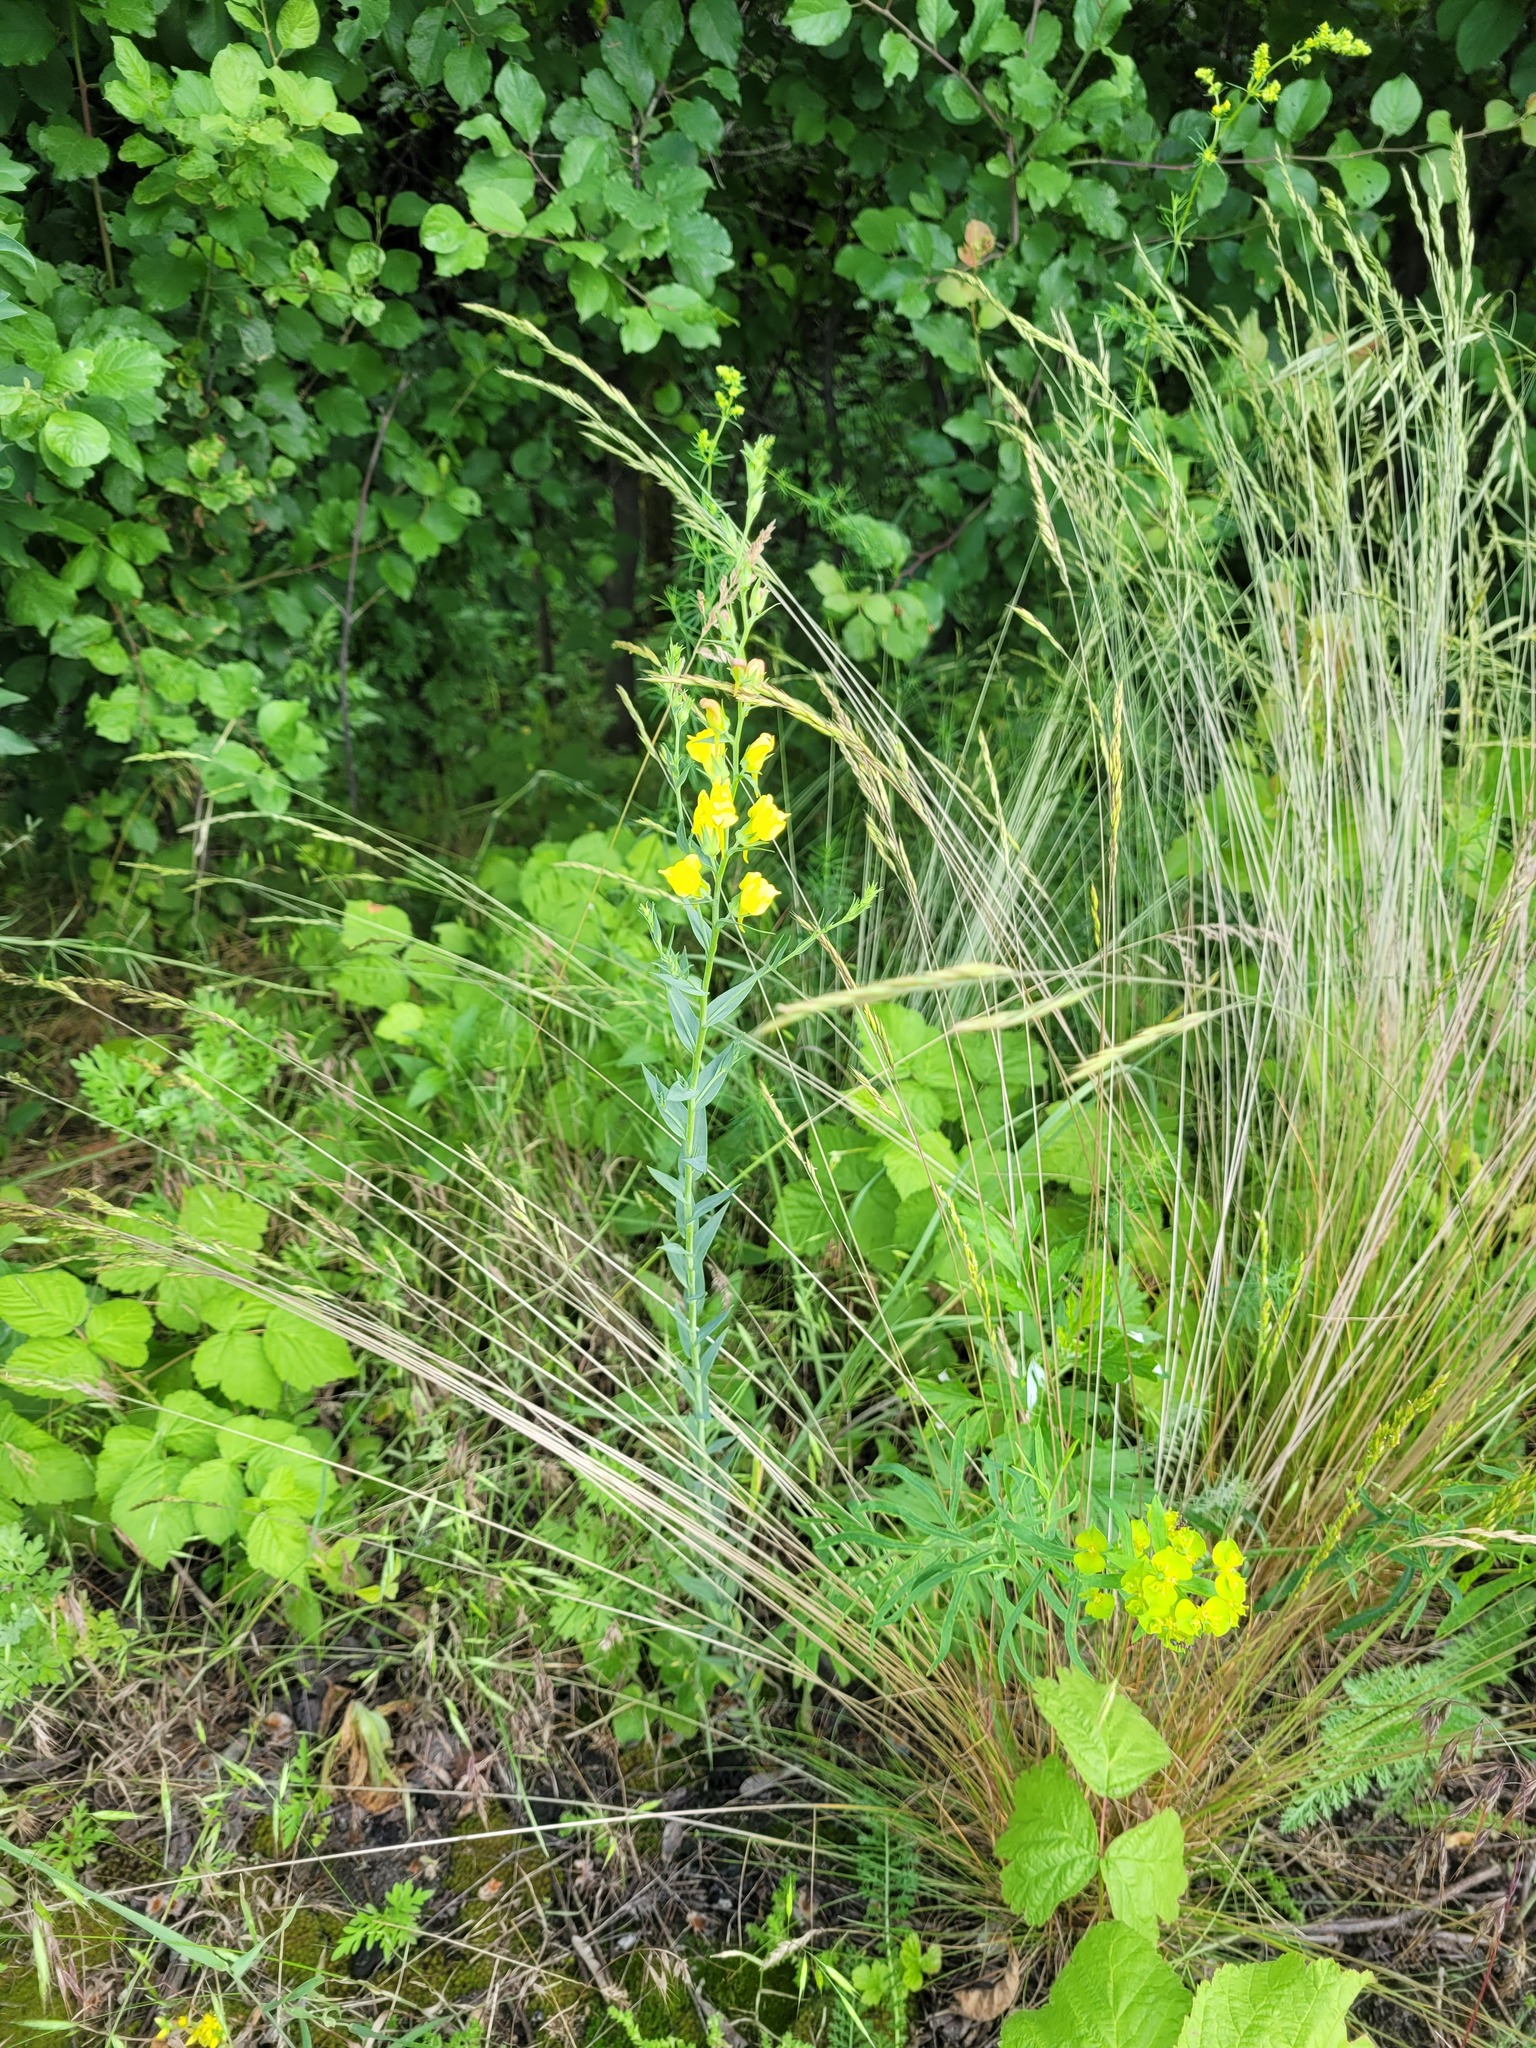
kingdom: Plantae
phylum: Tracheophyta
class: Magnoliopsida
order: Lamiales
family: Plantaginaceae
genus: Linaria
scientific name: Linaria genistifolia
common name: Broomleaf toadflax
